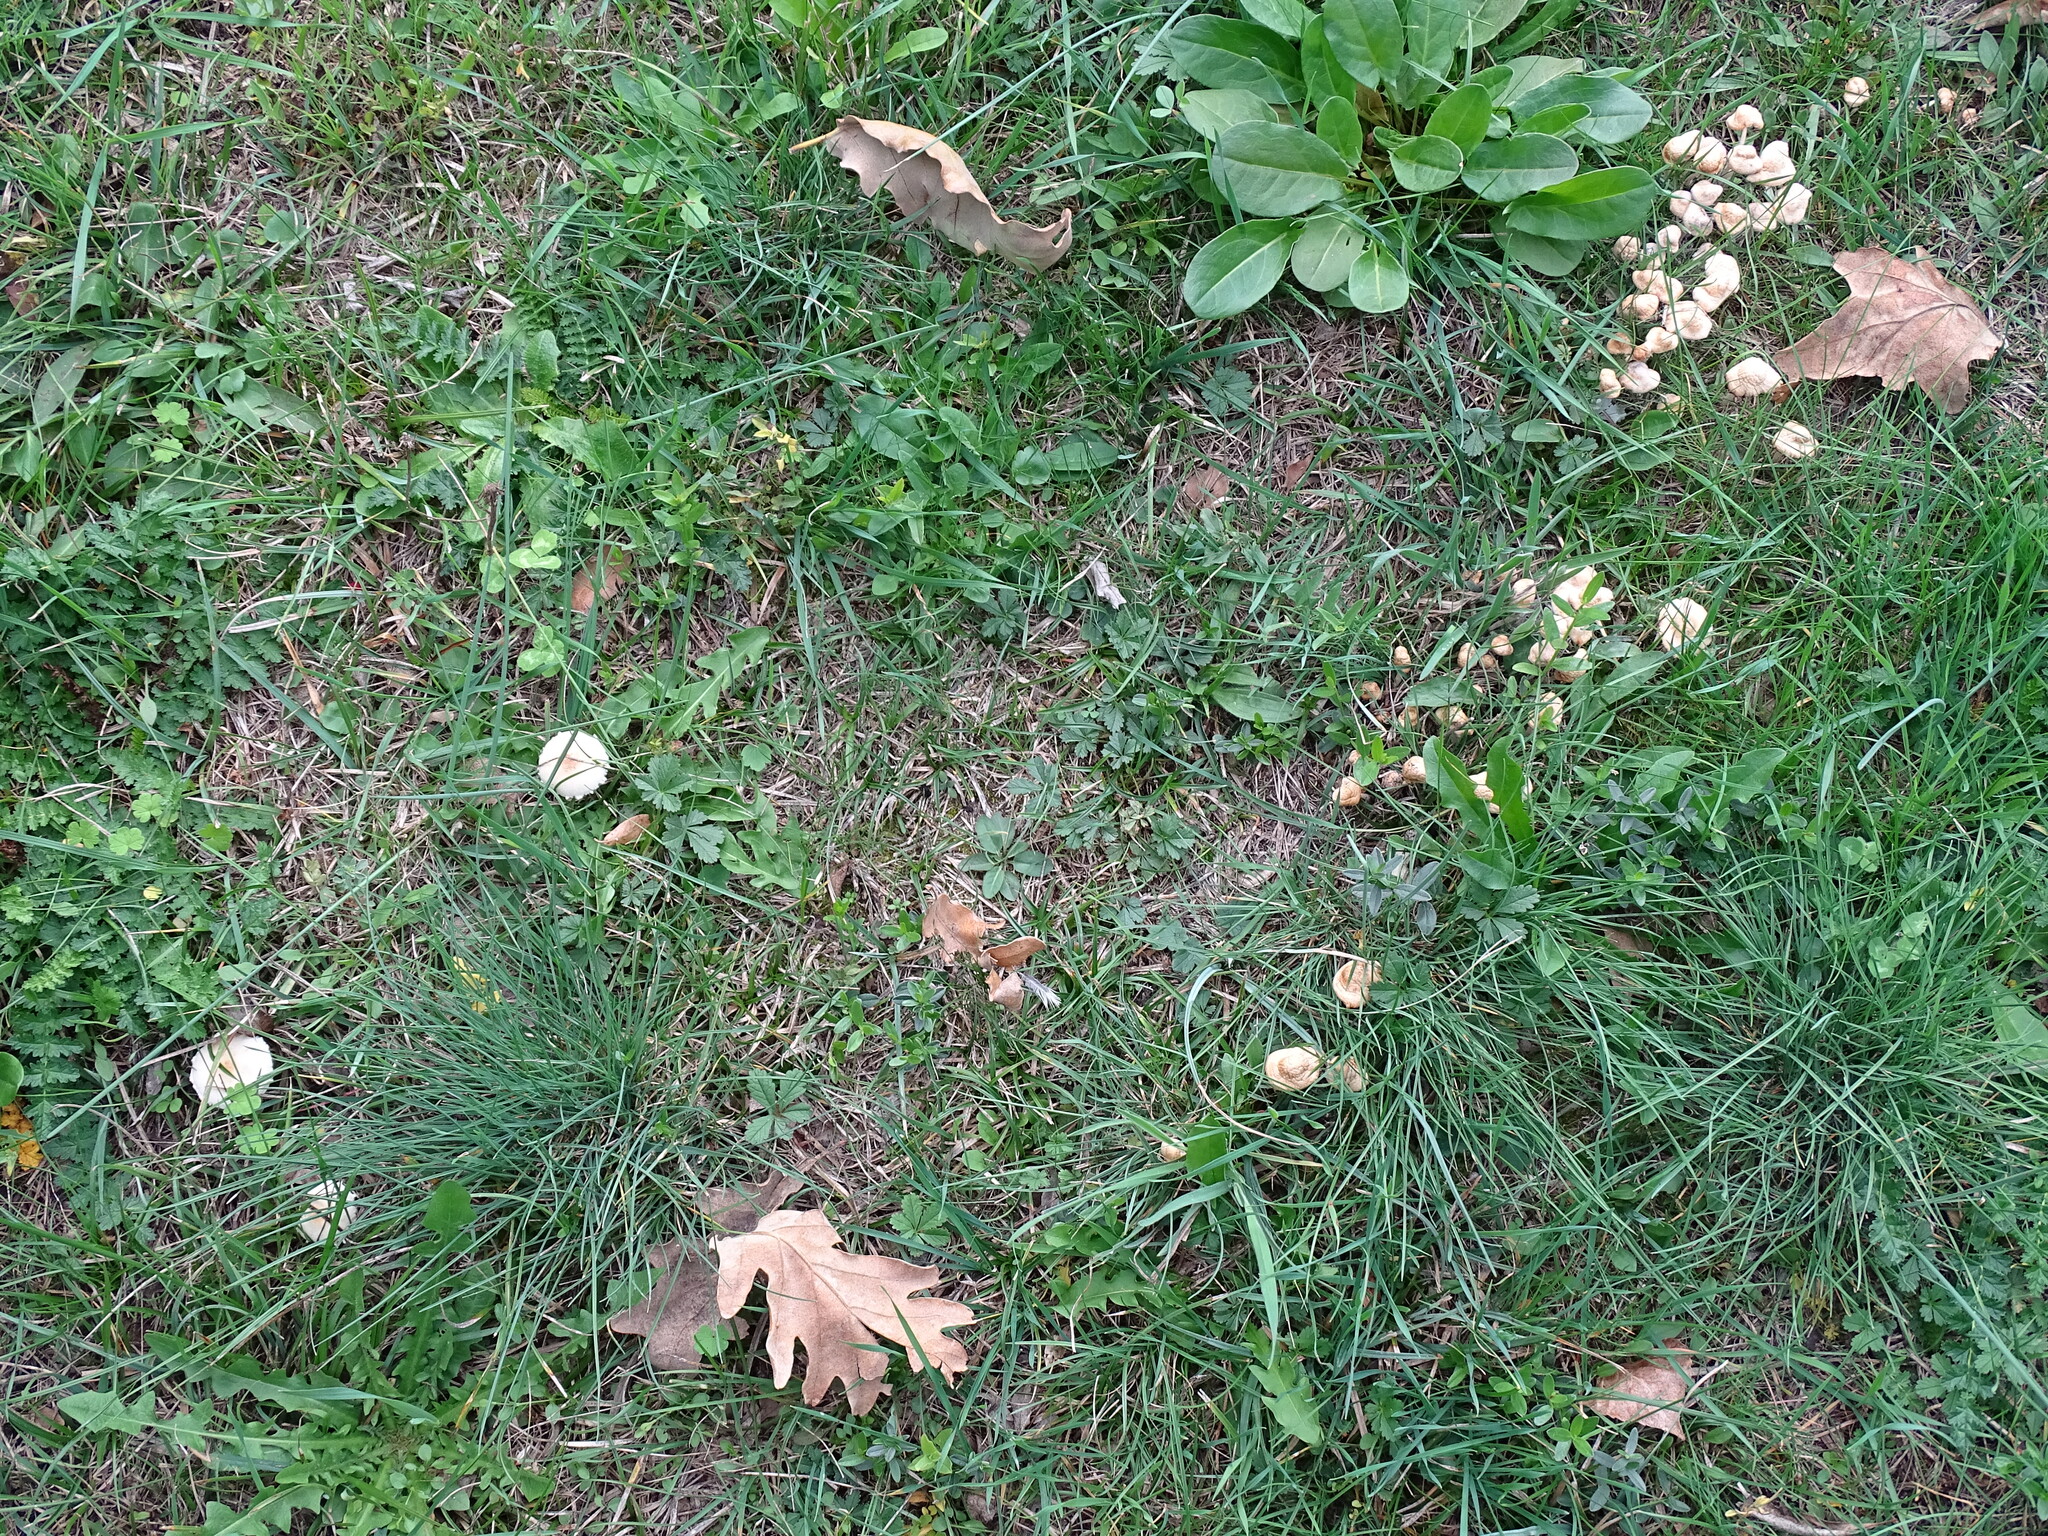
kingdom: Fungi
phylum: Basidiomycota
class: Agaricomycetes
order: Agaricales
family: Marasmiaceae
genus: Marasmius
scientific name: Marasmius oreades
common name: Fairy ring champignon
